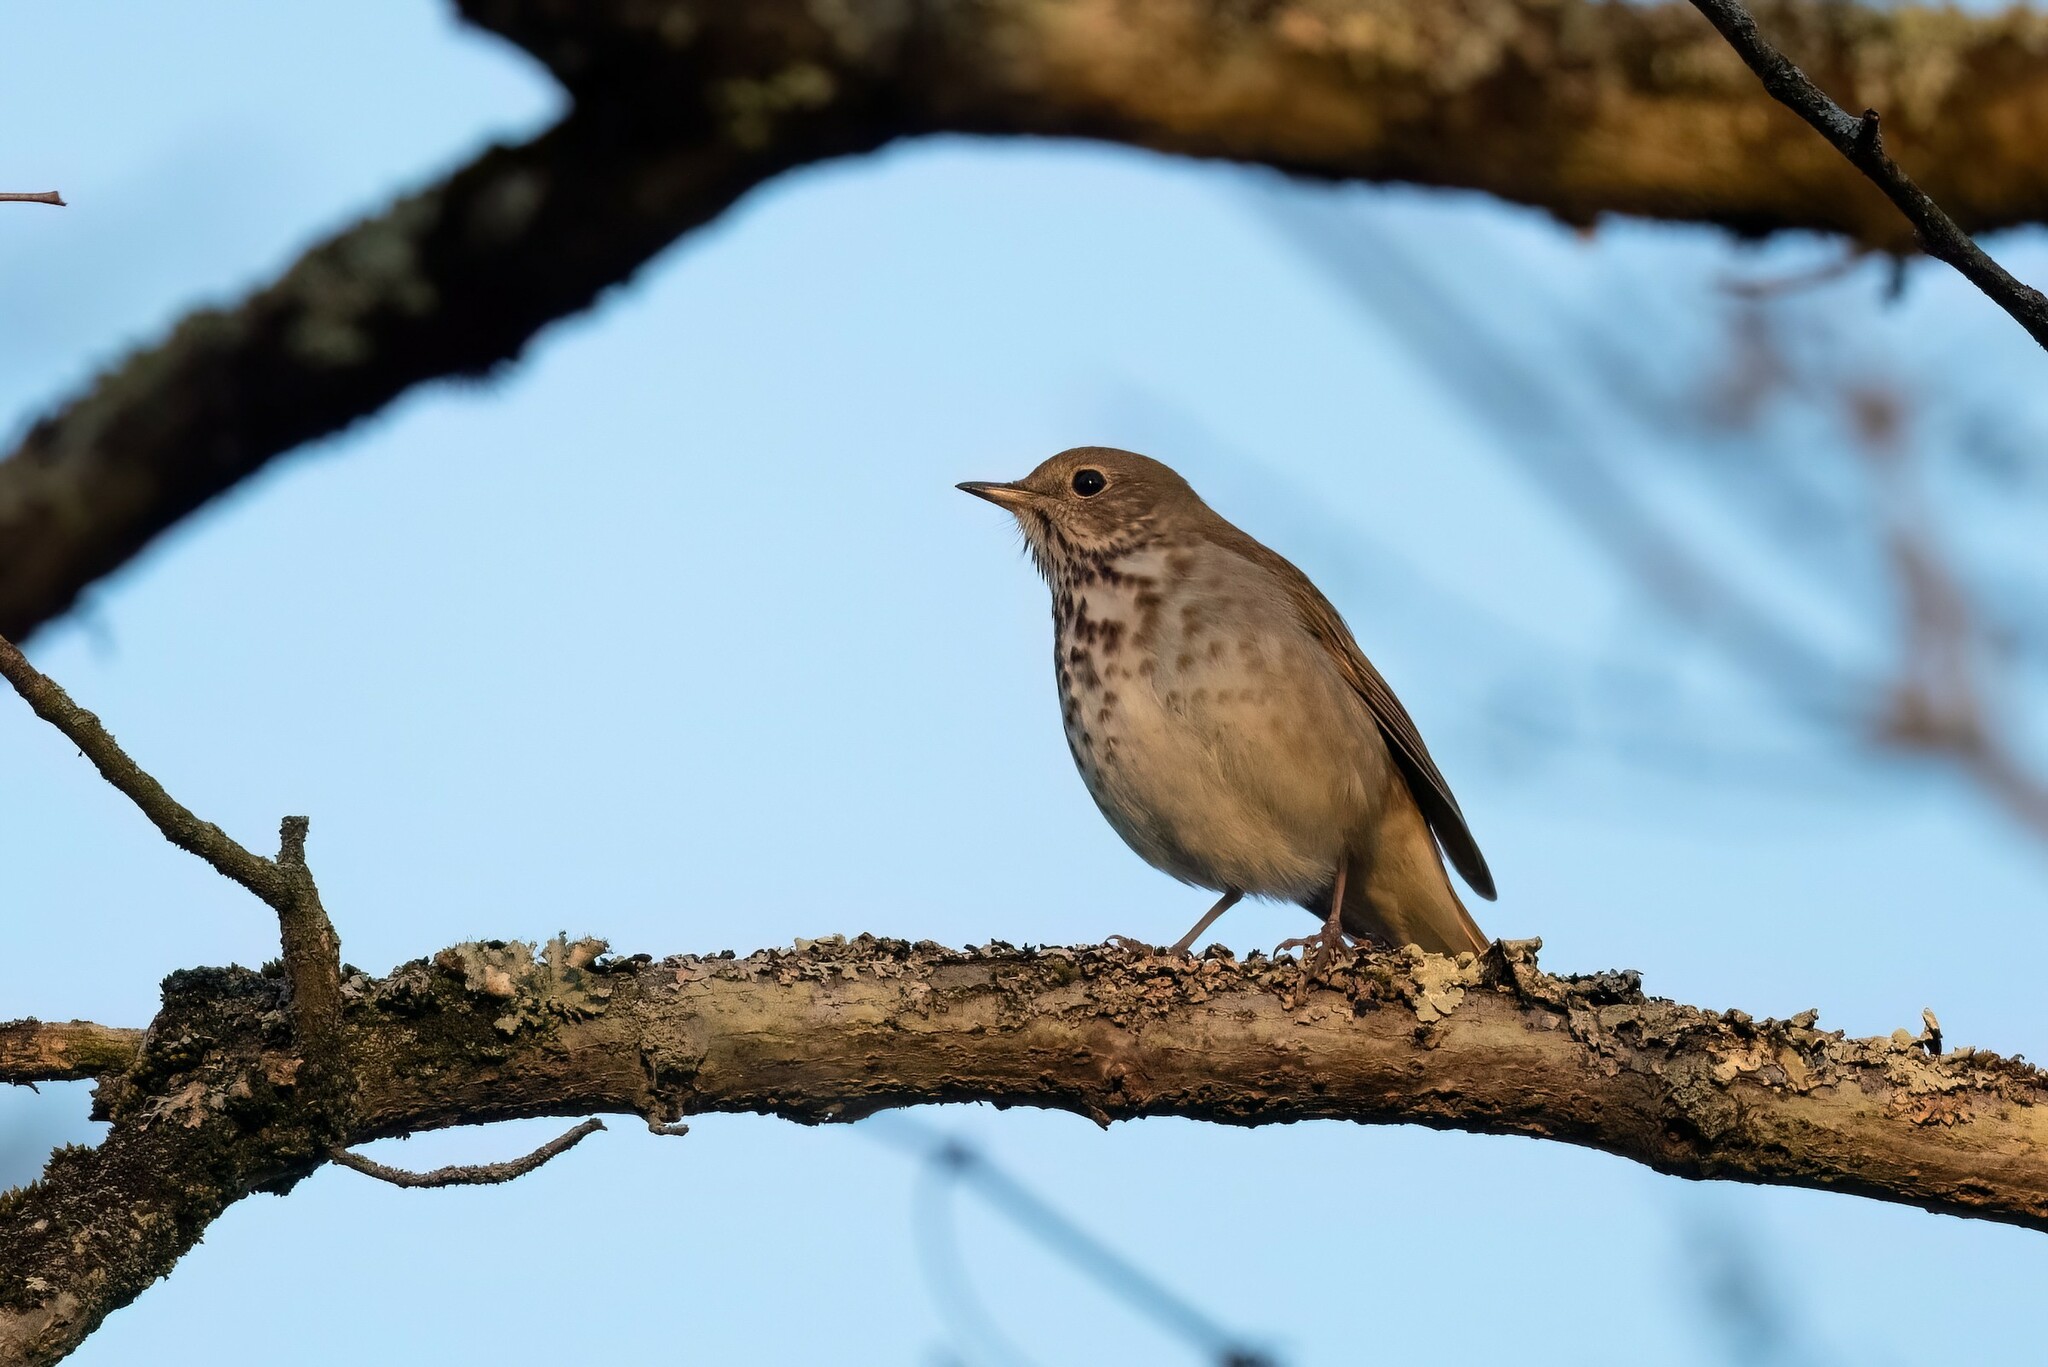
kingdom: Animalia
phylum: Chordata
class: Aves
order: Passeriformes
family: Turdidae
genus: Catharus
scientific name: Catharus guttatus
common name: Hermit thrush
